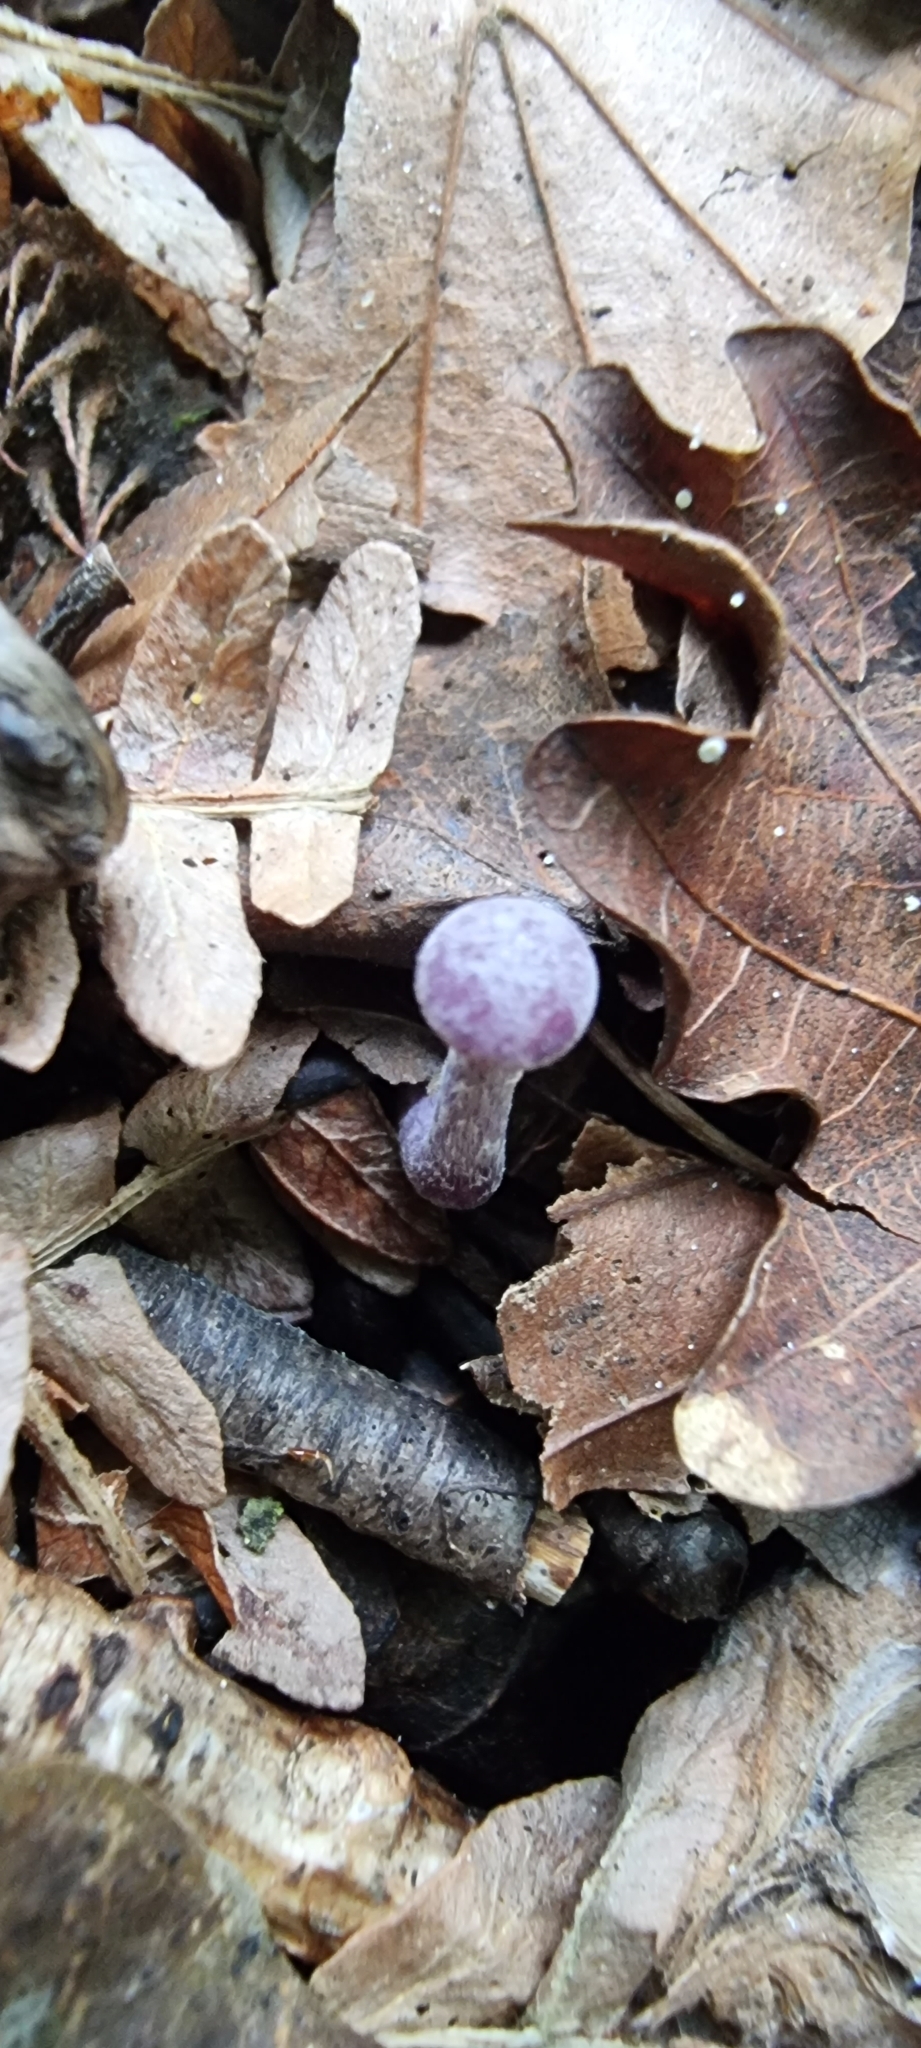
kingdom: Fungi
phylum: Basidiomycota
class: Agaricomycetes
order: Agaricales
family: Hydnangiaceae
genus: Laccaria
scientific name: Laccaria amethystina
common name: Amethyst deceiver
